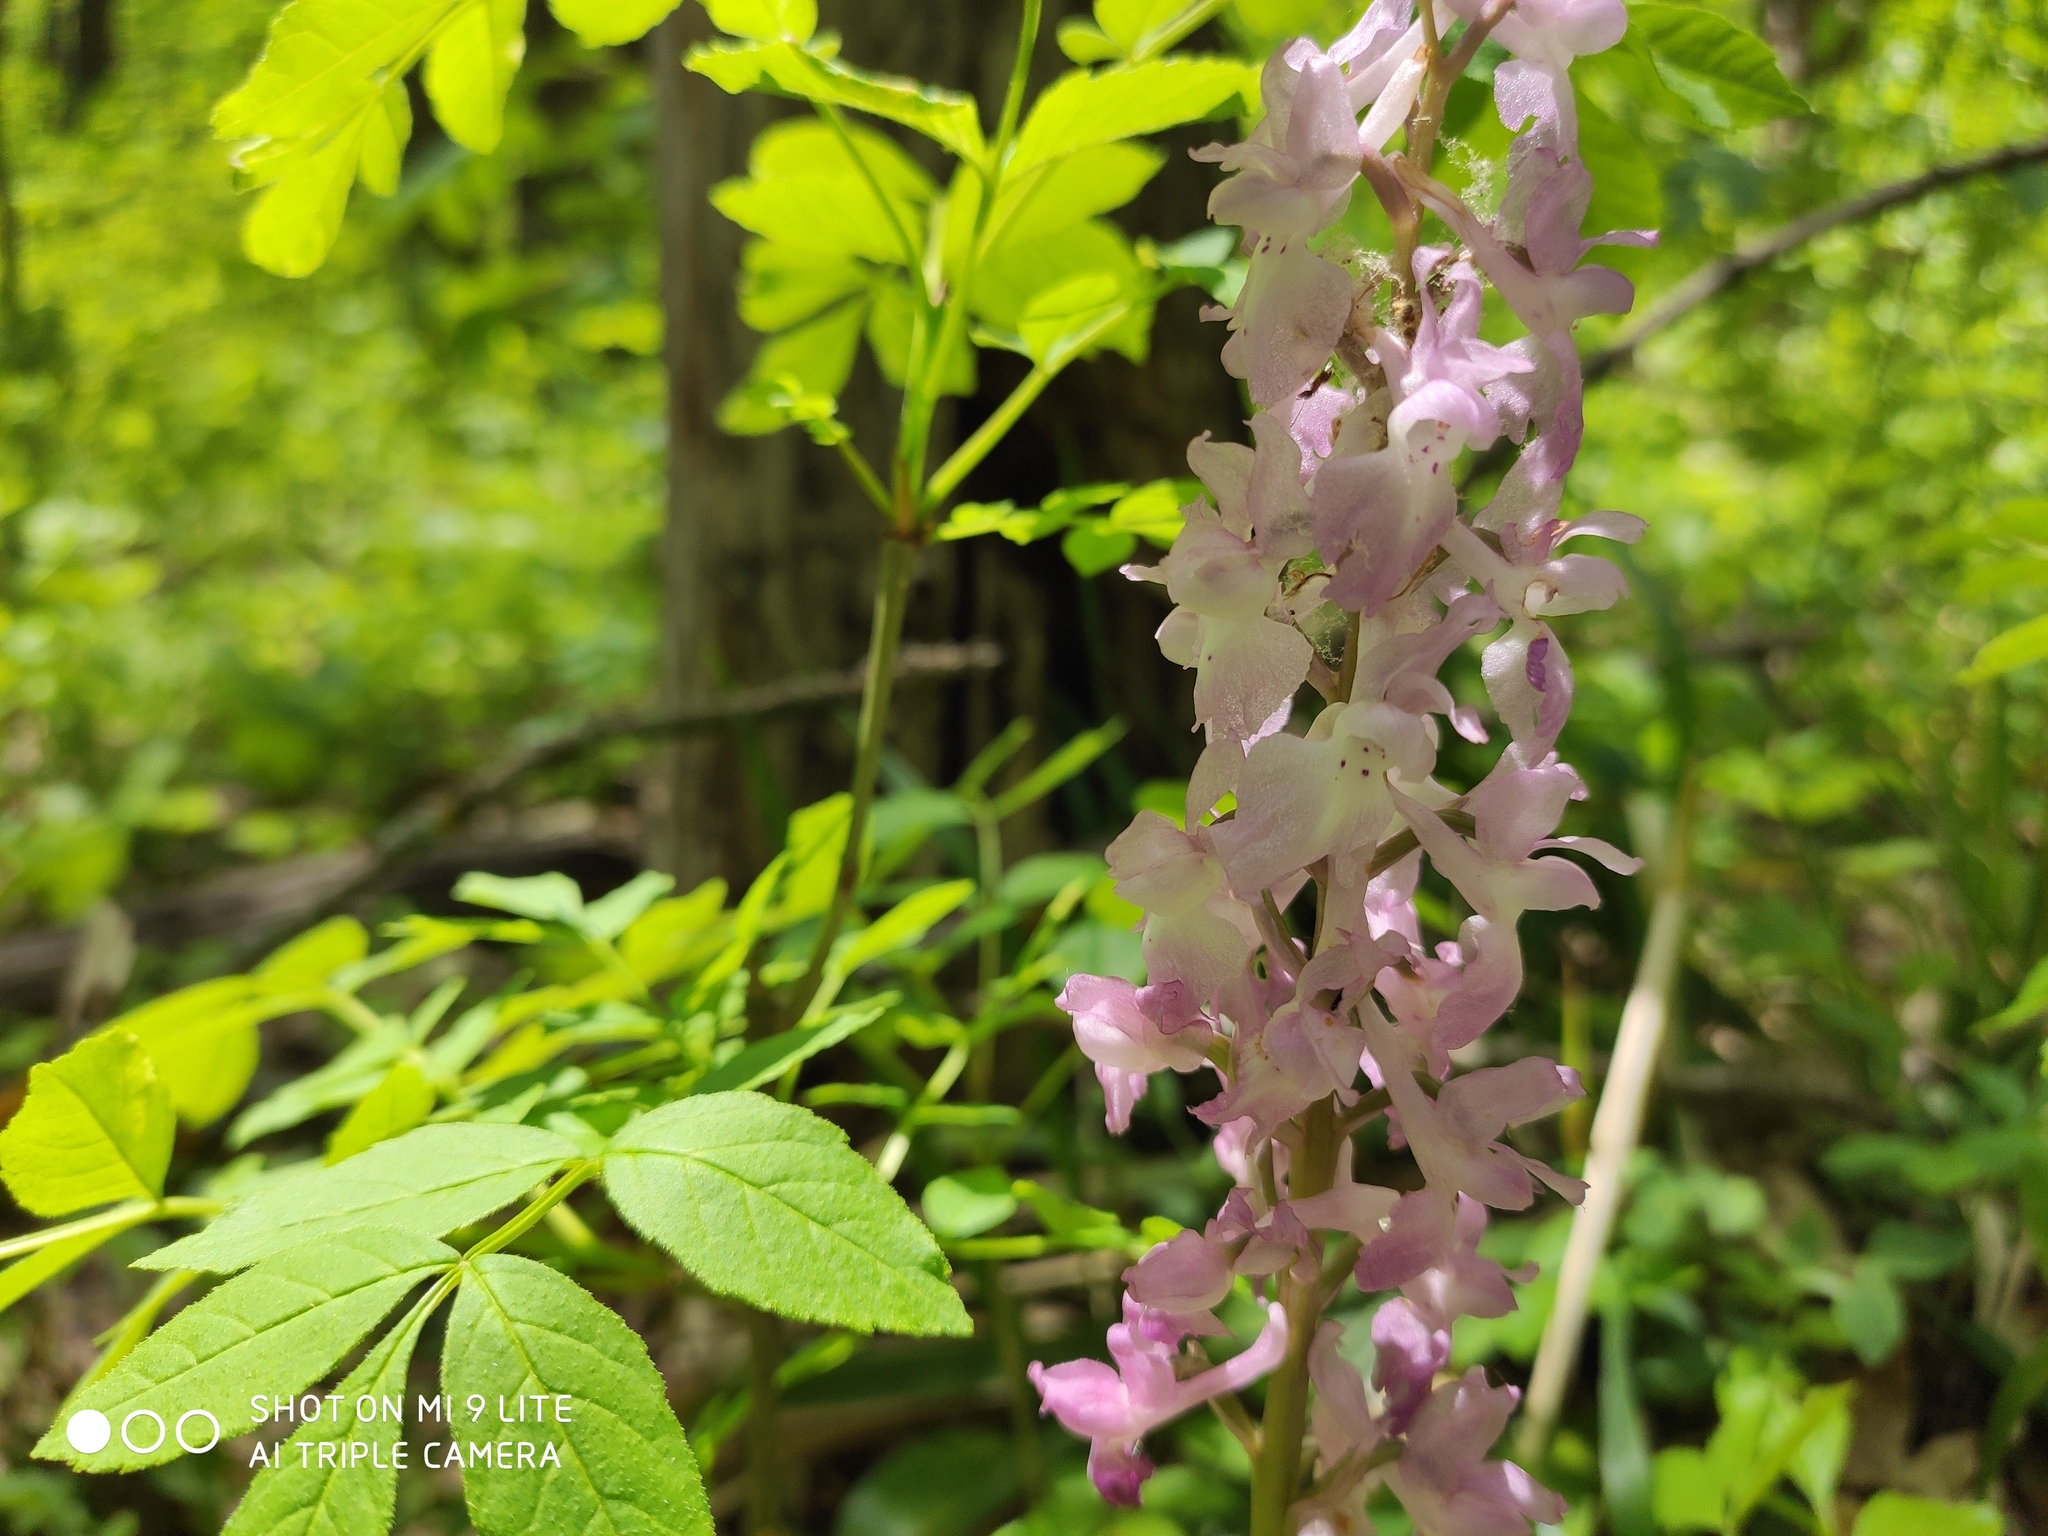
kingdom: Plantae
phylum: Tracheophyta
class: Liliopsida
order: Asparagales
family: Orchidaceae
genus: Orchis
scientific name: Orchis mascula
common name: Early-purple orchid
